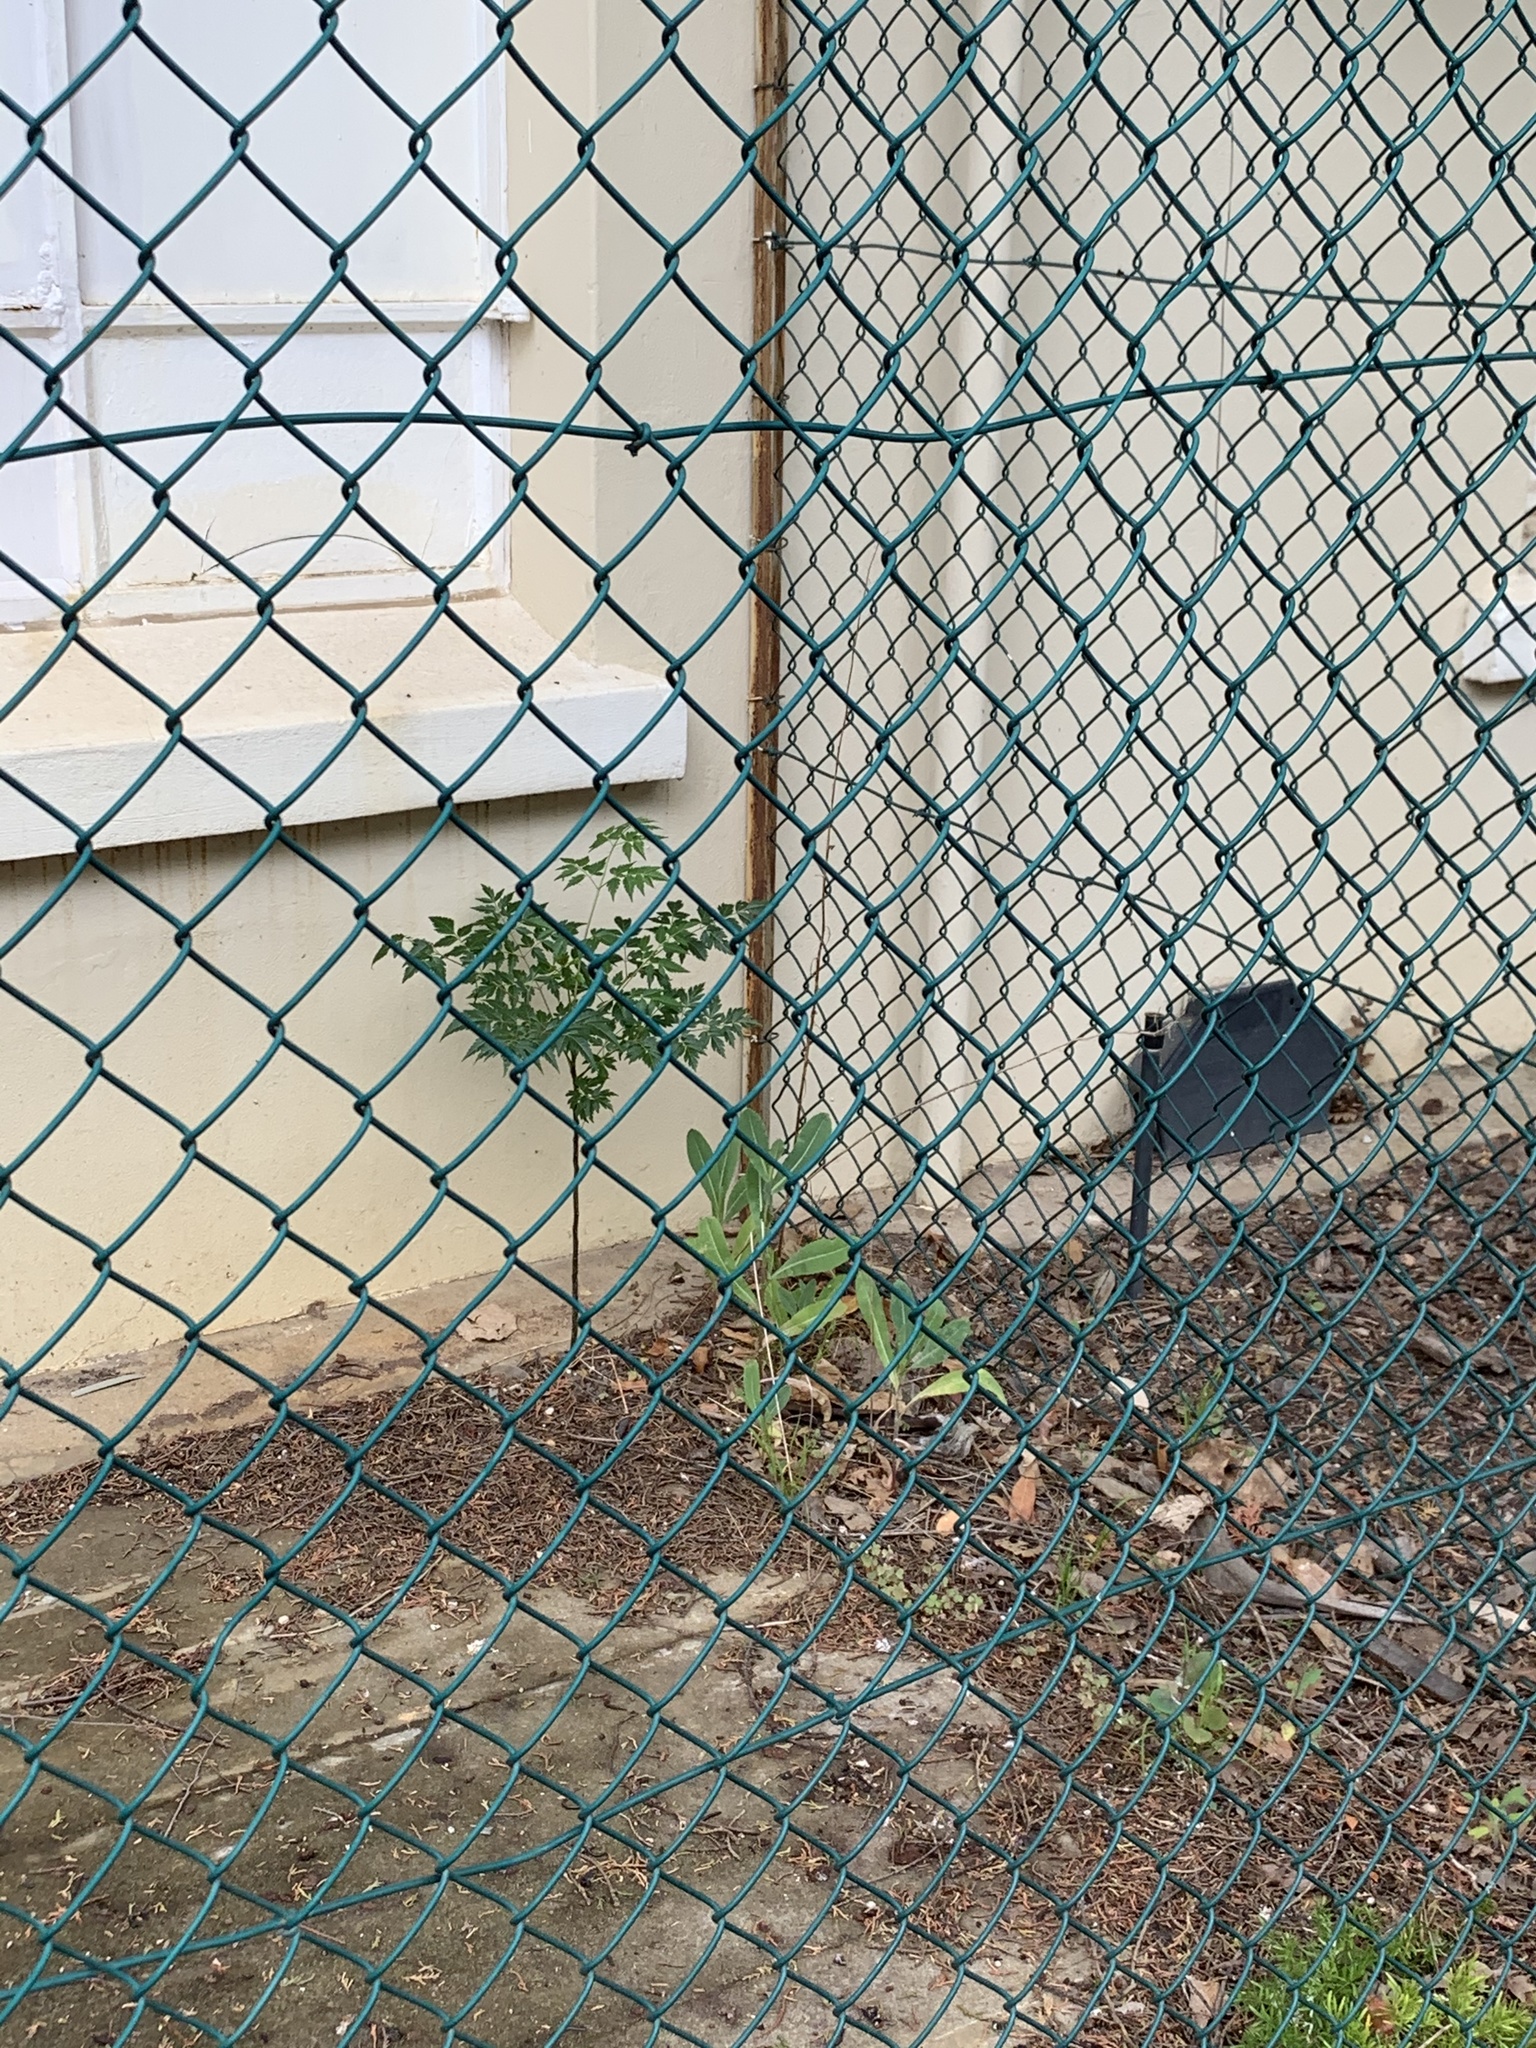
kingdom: Plantae
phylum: Tracheophyta
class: Magnoliopsida
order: Sapindales
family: Meliaceae
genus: Melia
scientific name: Melia azedarach
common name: Chinaberrytree
